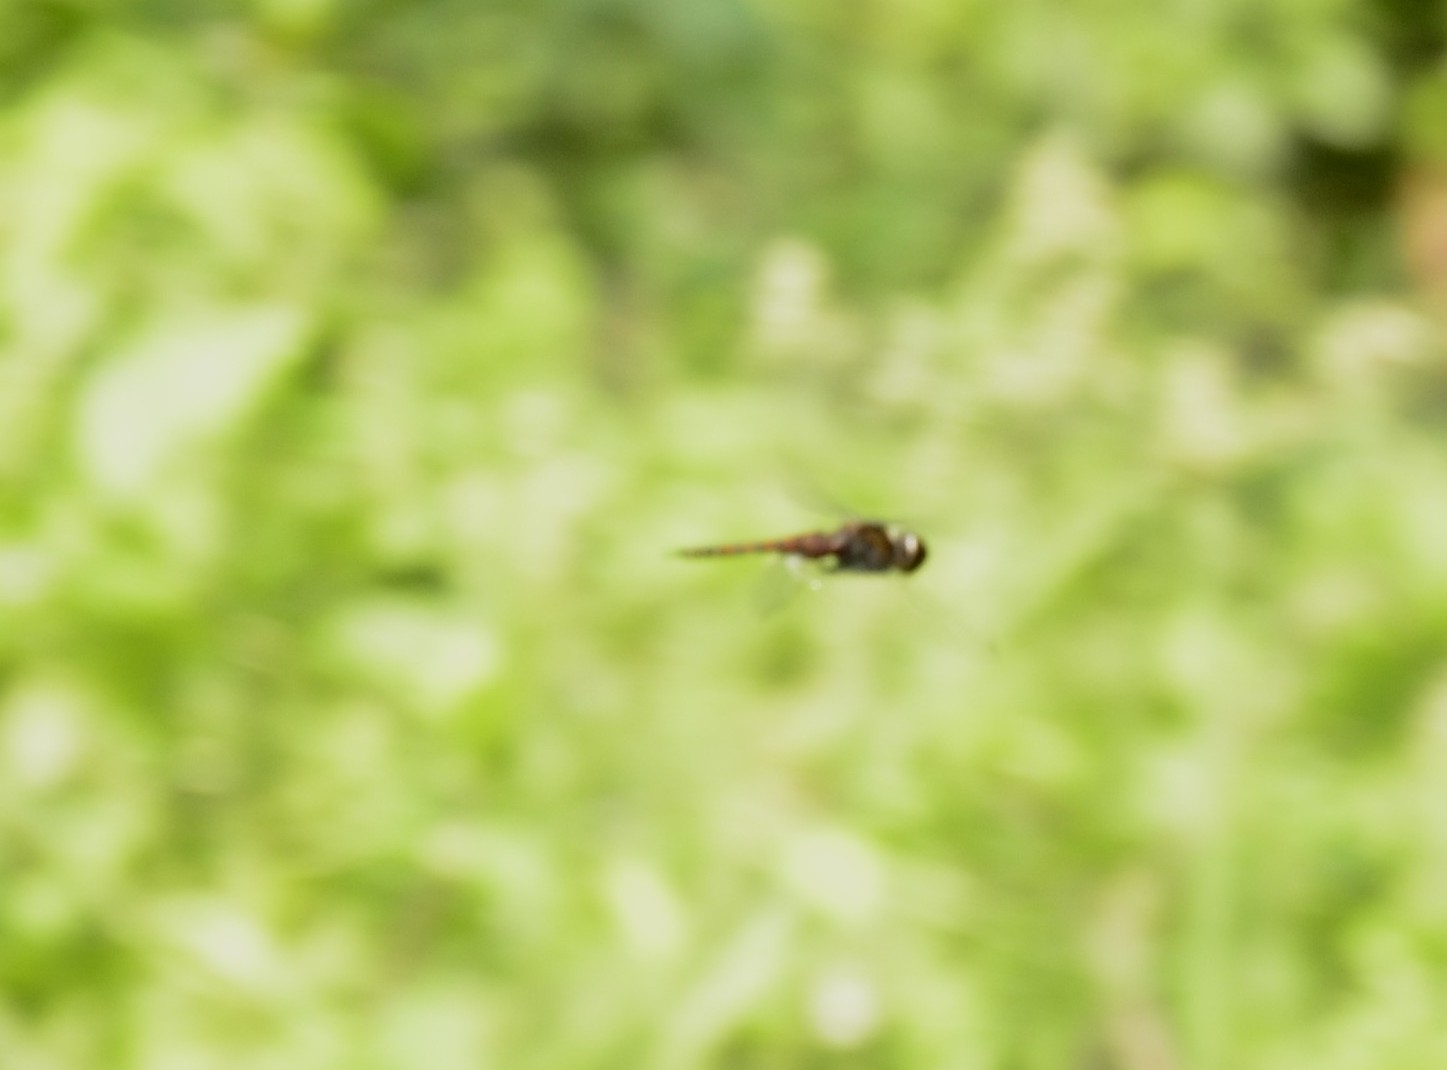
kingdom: Animalia
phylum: Arthropoda
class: Insecta
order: Odonata
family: Libellulidae
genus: Tramea
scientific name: Tramea limbata
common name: Ferruginous glider
